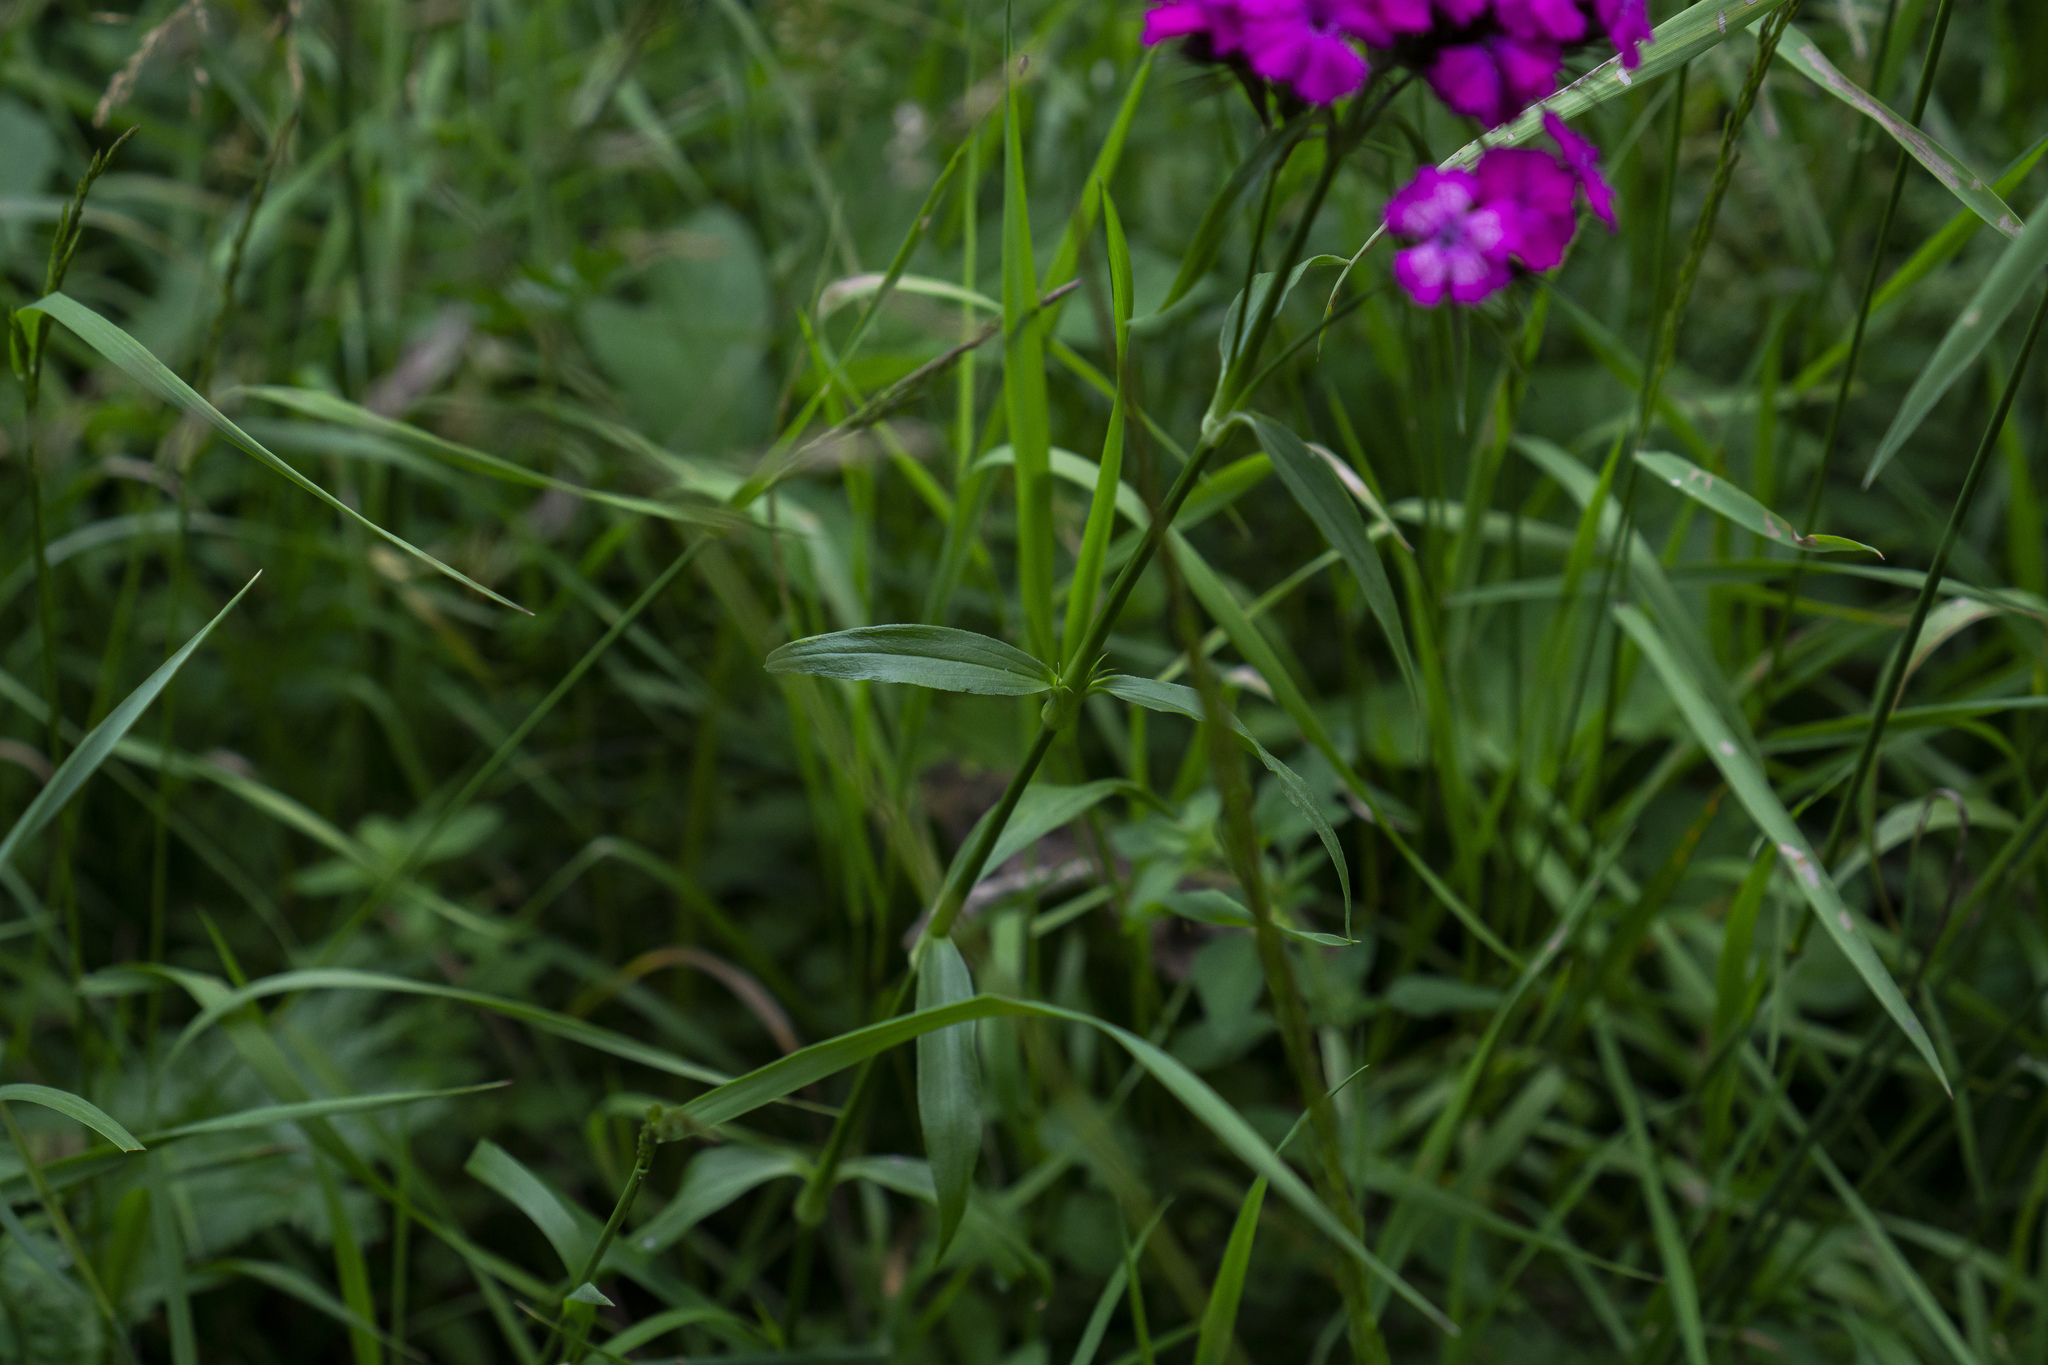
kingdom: Plantae
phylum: Tracheophyta
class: Magnoliopsida
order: Caryophyllales
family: Caryophyllaceae
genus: Dianthus
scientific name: Dianthus barbatus
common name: Sweet-william
